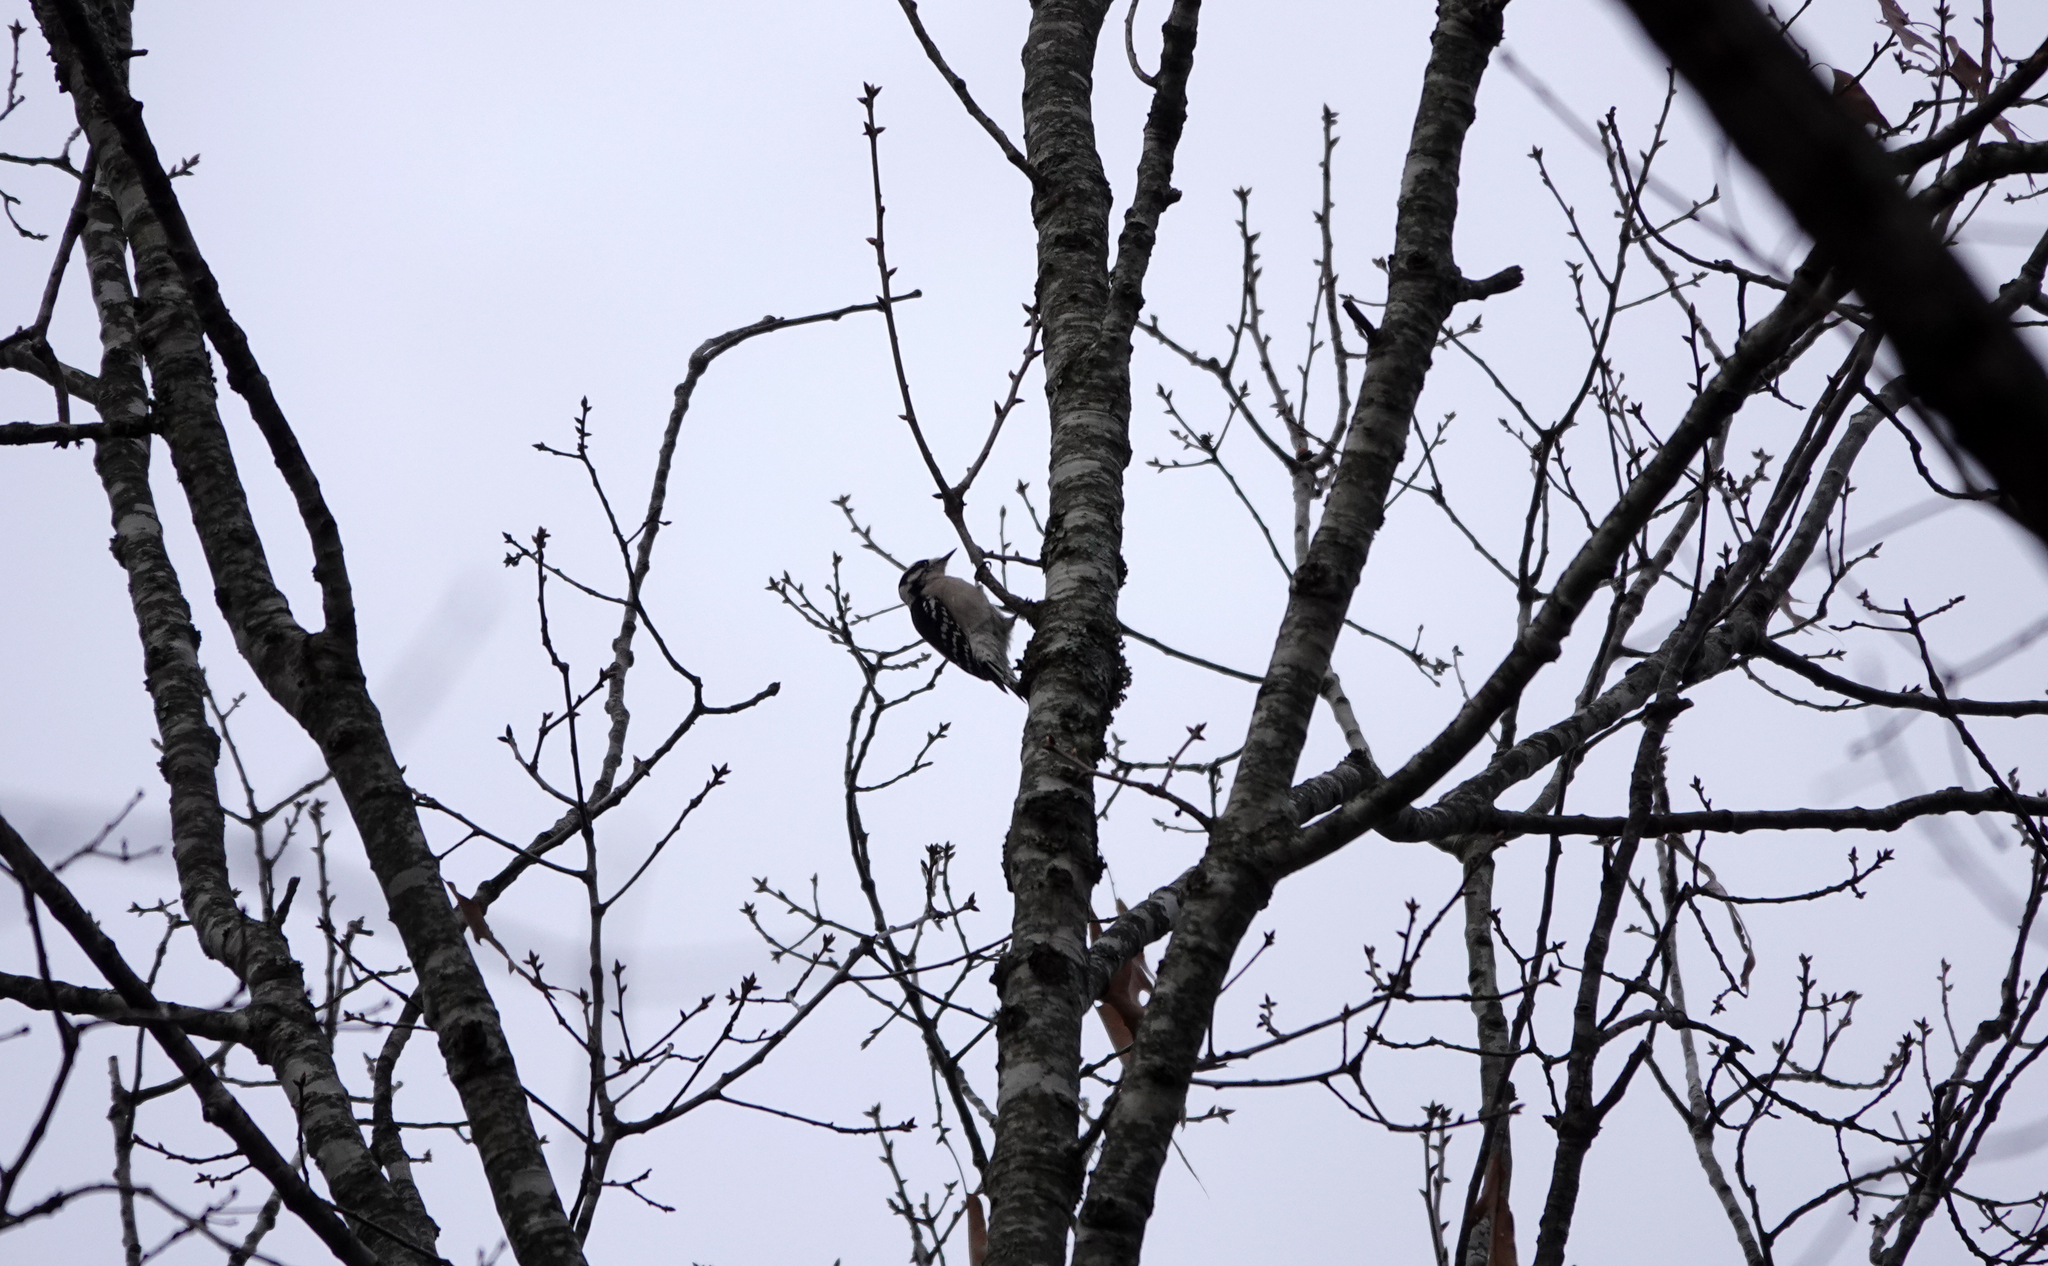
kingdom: Animalia
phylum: Chordata
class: Aves
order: Piciformes
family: Picidae
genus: Dryobates
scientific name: Dryobates pubescens
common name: Downy woodpecker
